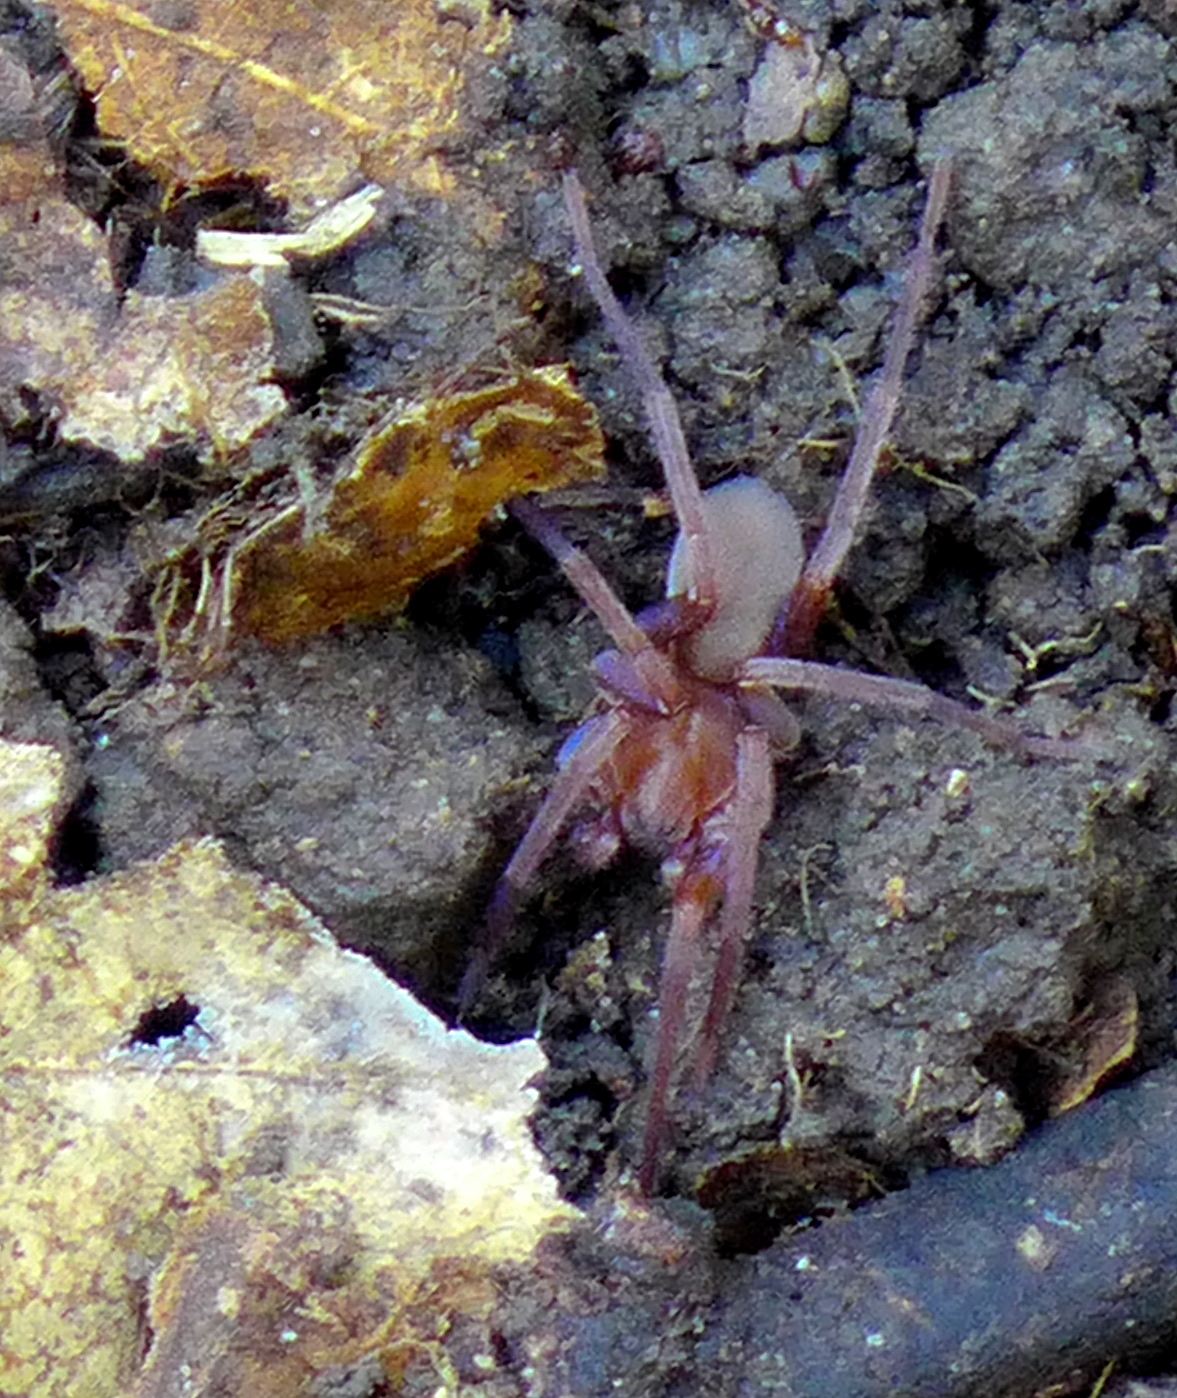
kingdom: Animalia
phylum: Arthropoda
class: Arachnida
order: Araneae
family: Zoropsidae
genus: Titiotus
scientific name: Titiotus
